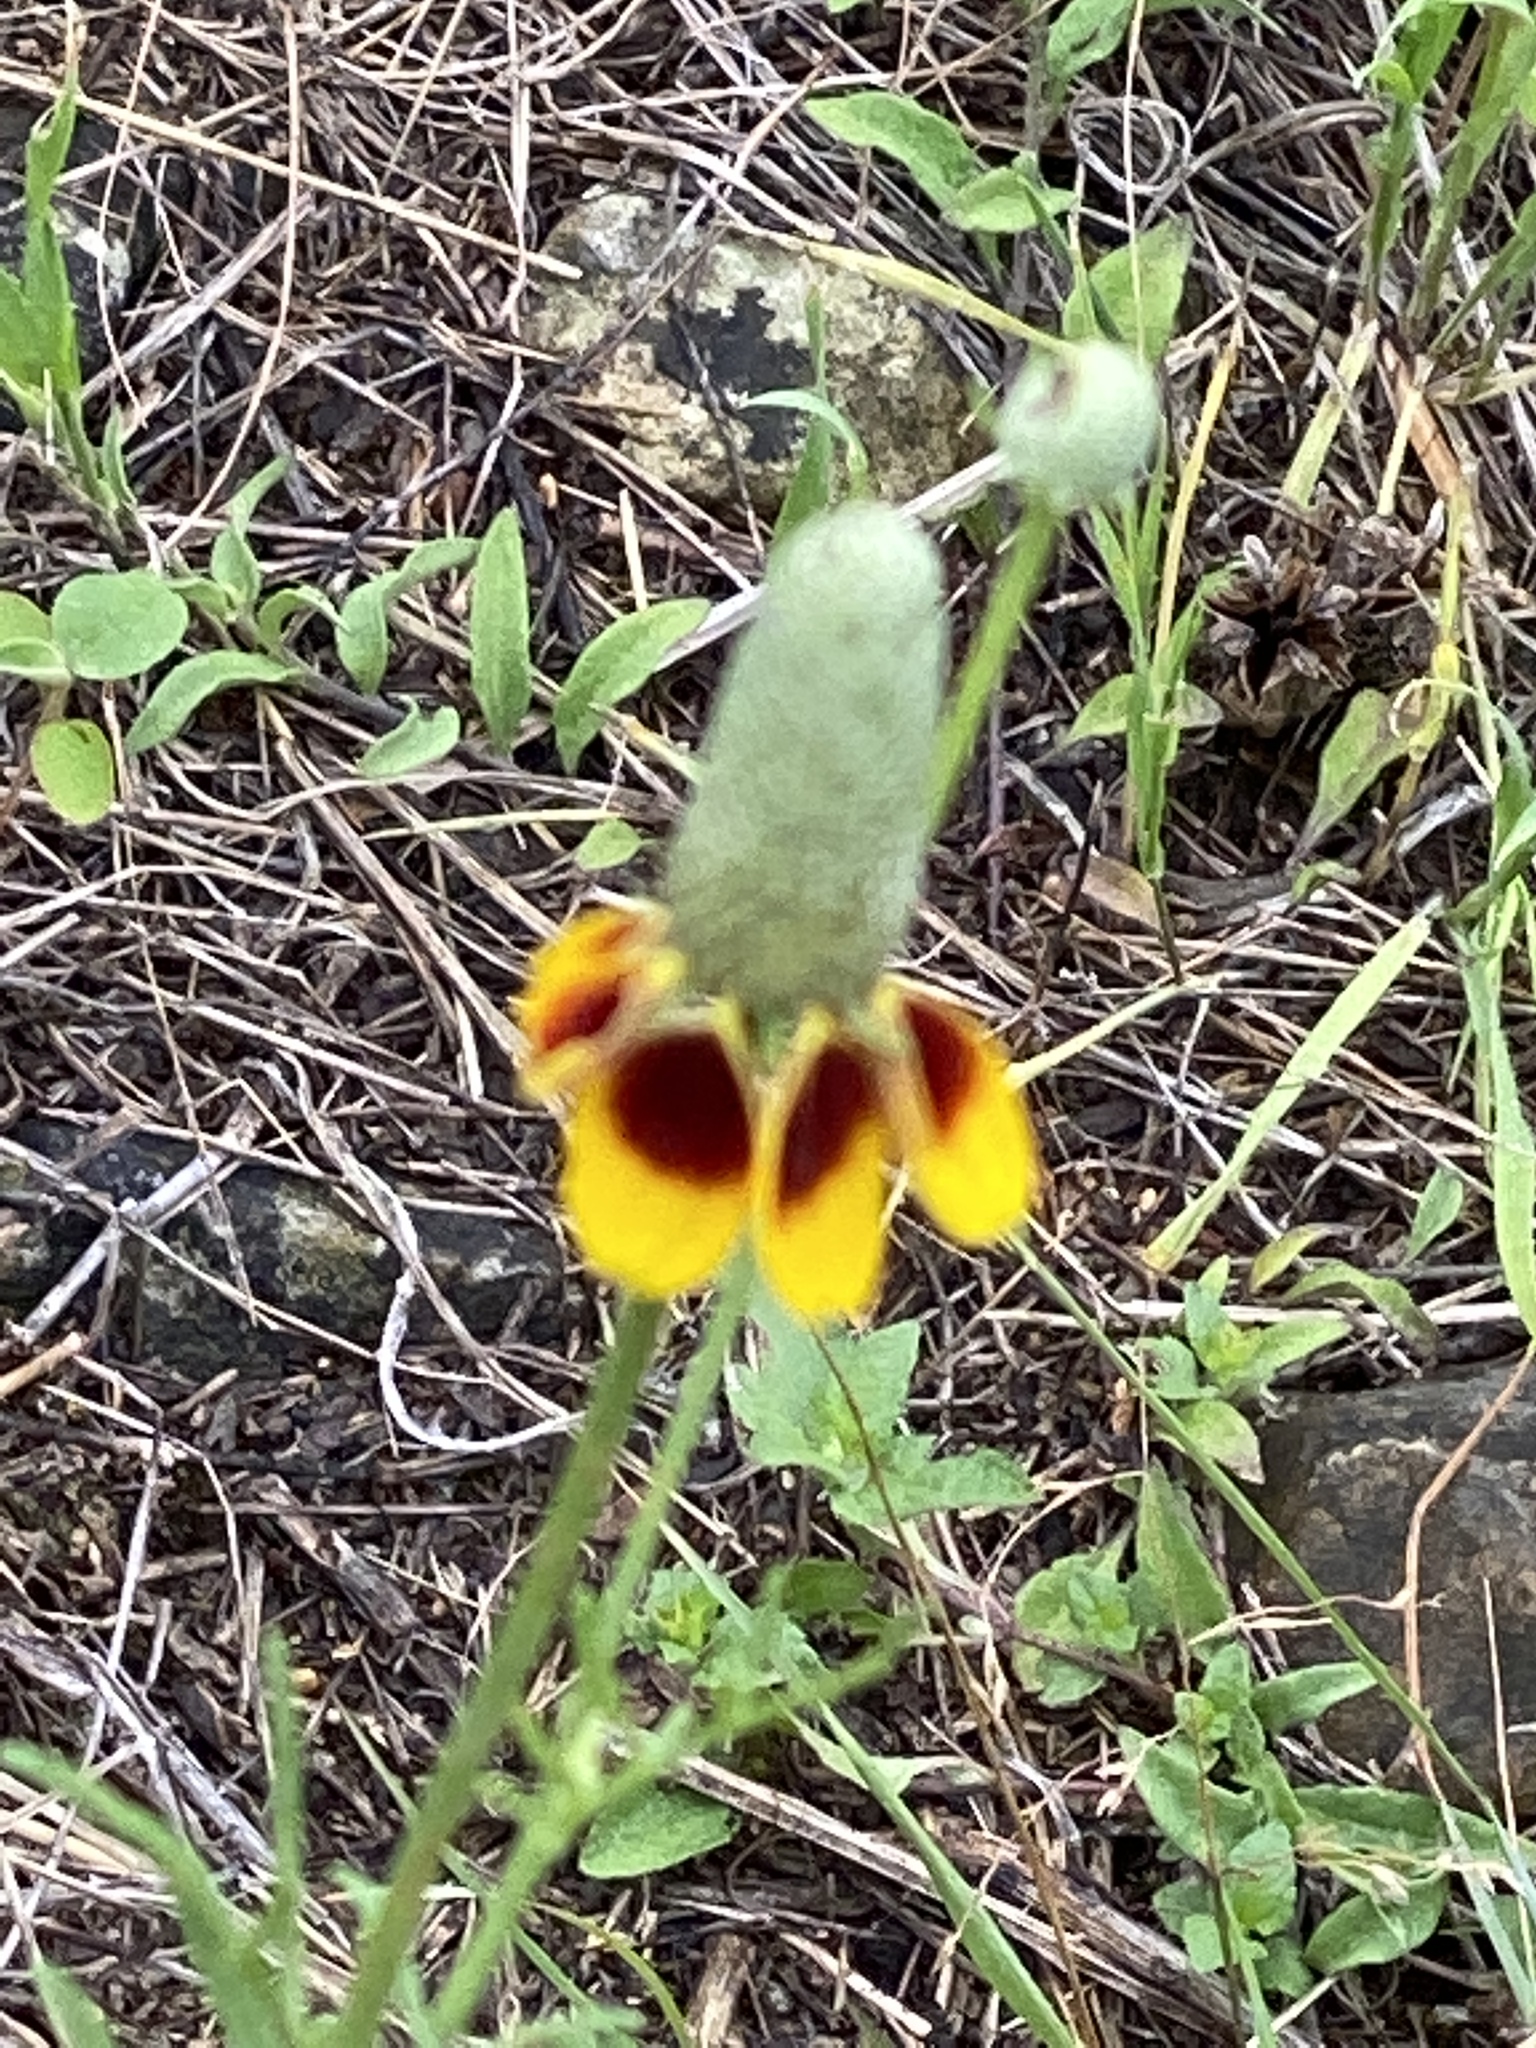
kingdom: Plantae
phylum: Tracheophyta
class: Magnoliopsida
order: Asterales
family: Asteraceae
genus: Ratibida
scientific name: Ratibida columnifera
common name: Prairie coneflower
